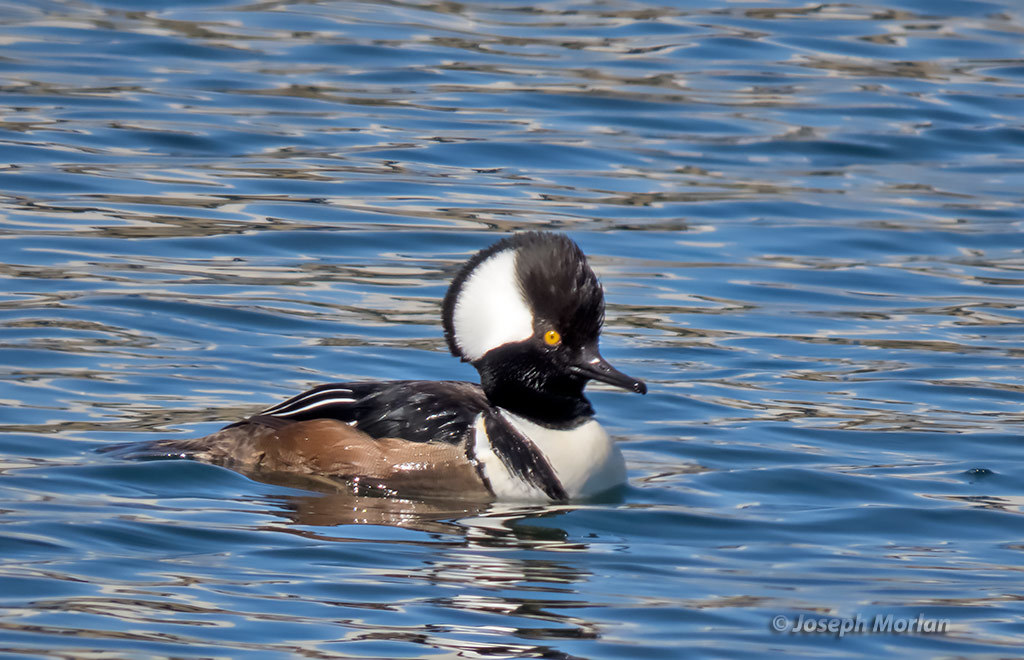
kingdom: Animalia
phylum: Chordata
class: Aves
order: Anseriformes
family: Anatidae
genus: Lophodytes
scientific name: Lophodytes cucullatus
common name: Hooded merganser
